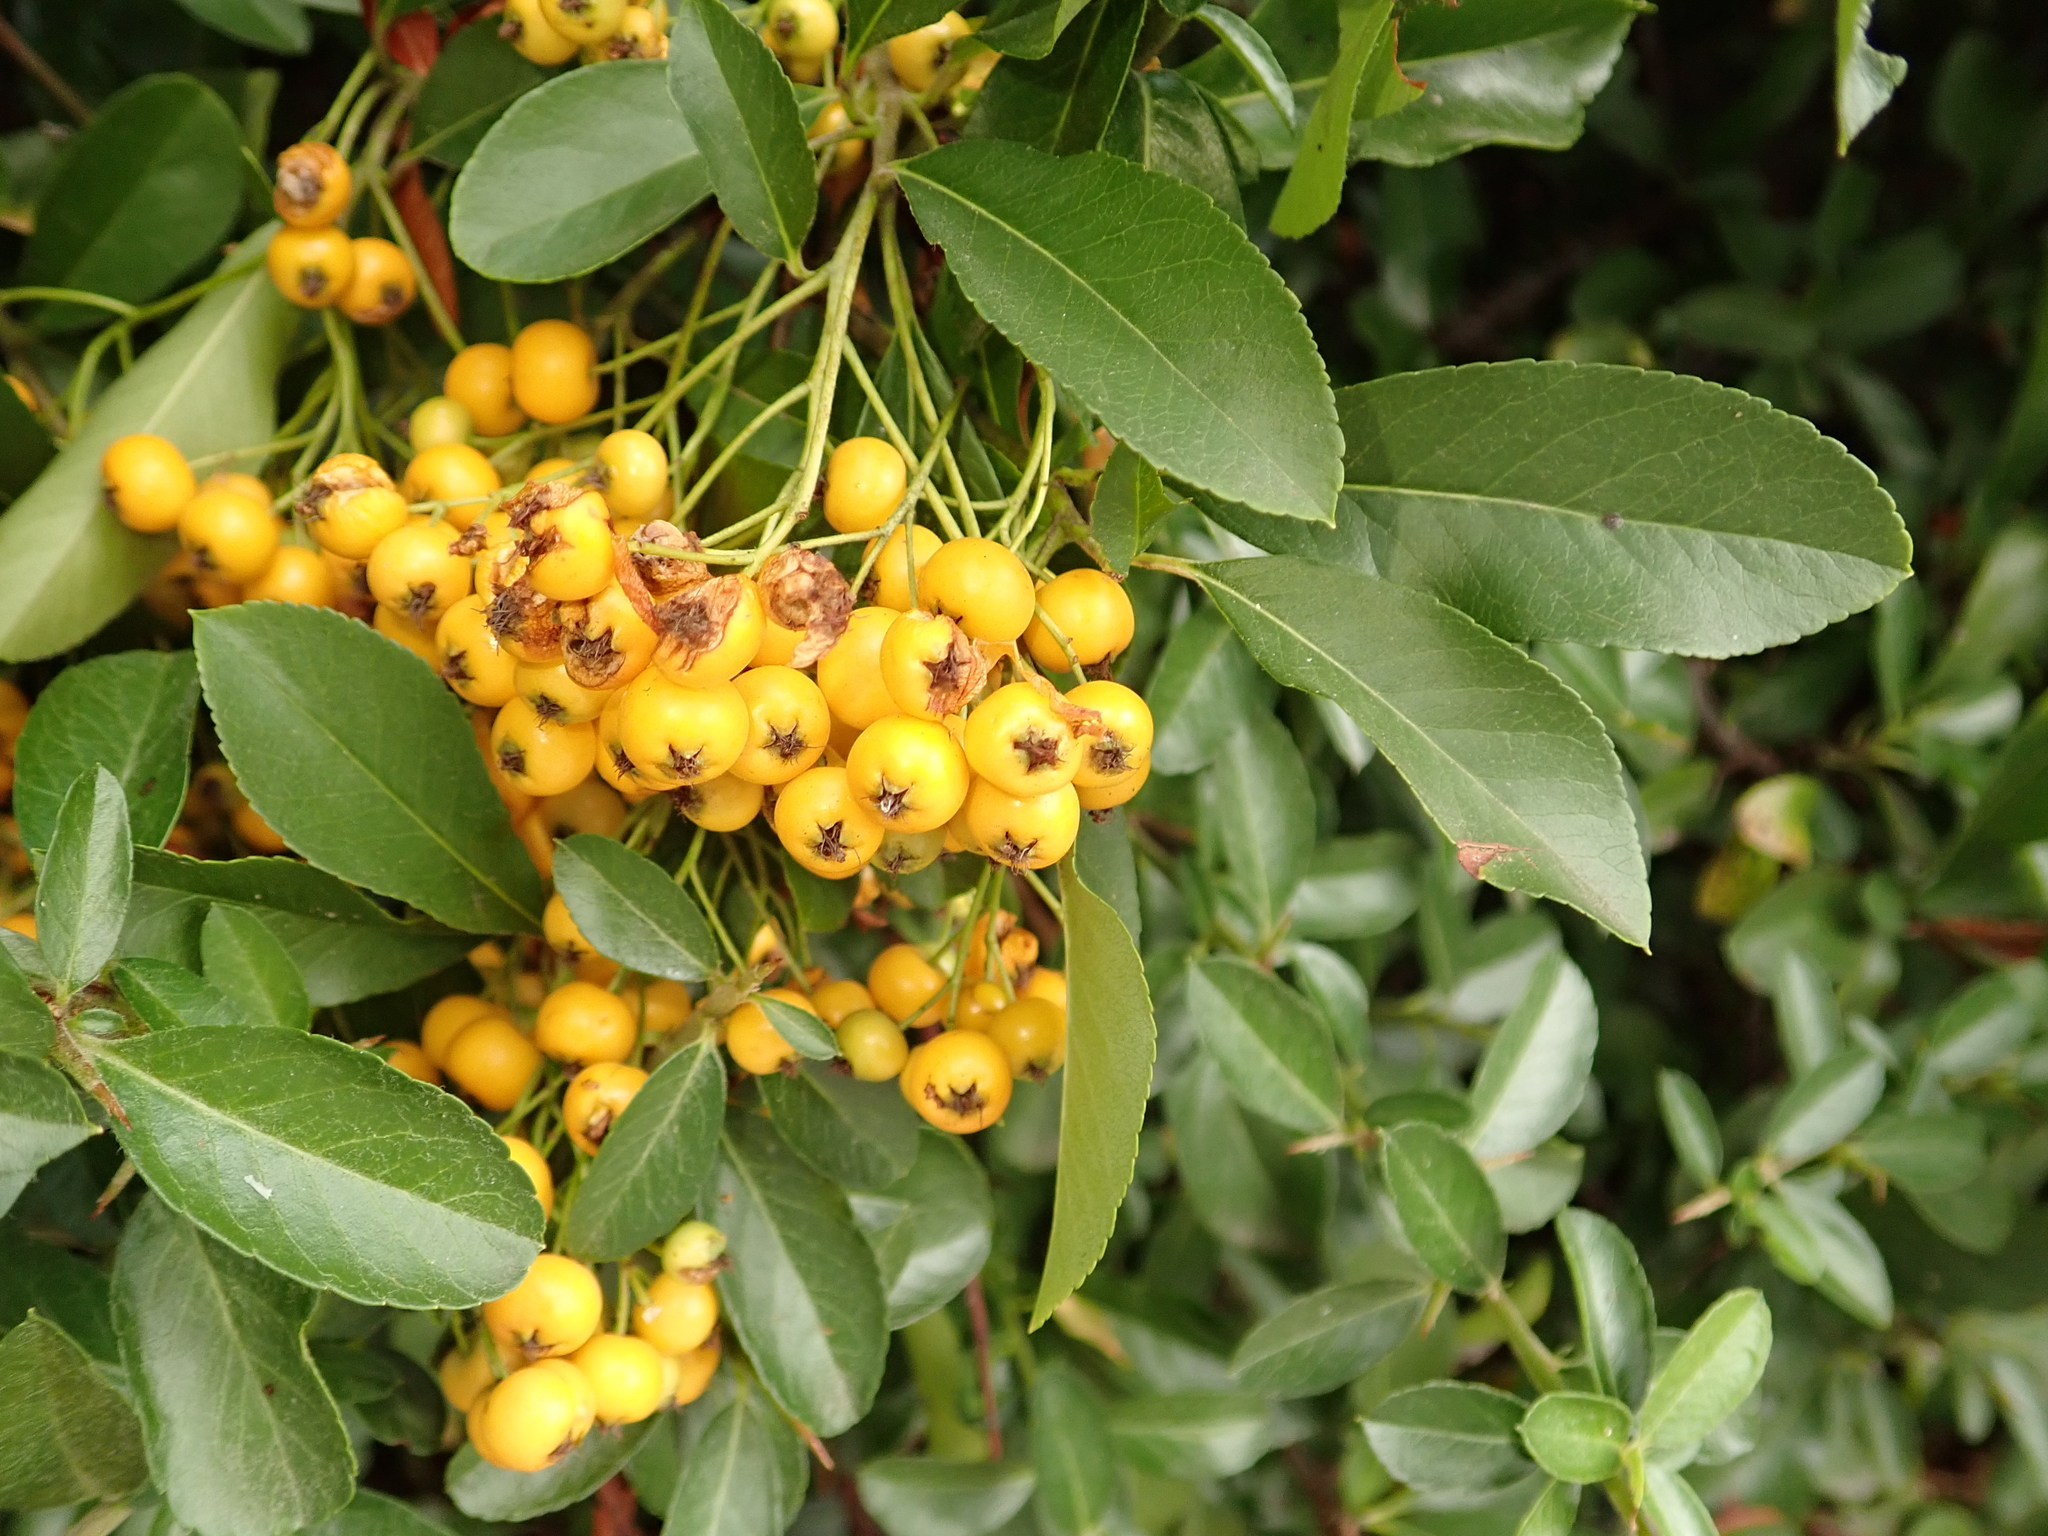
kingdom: Plantae
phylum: Tracheophyta
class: Magnoliopsida
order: Rosales
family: Rosaceae
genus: Pyracantha
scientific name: Pyracantha coccinea
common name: Firethorn
